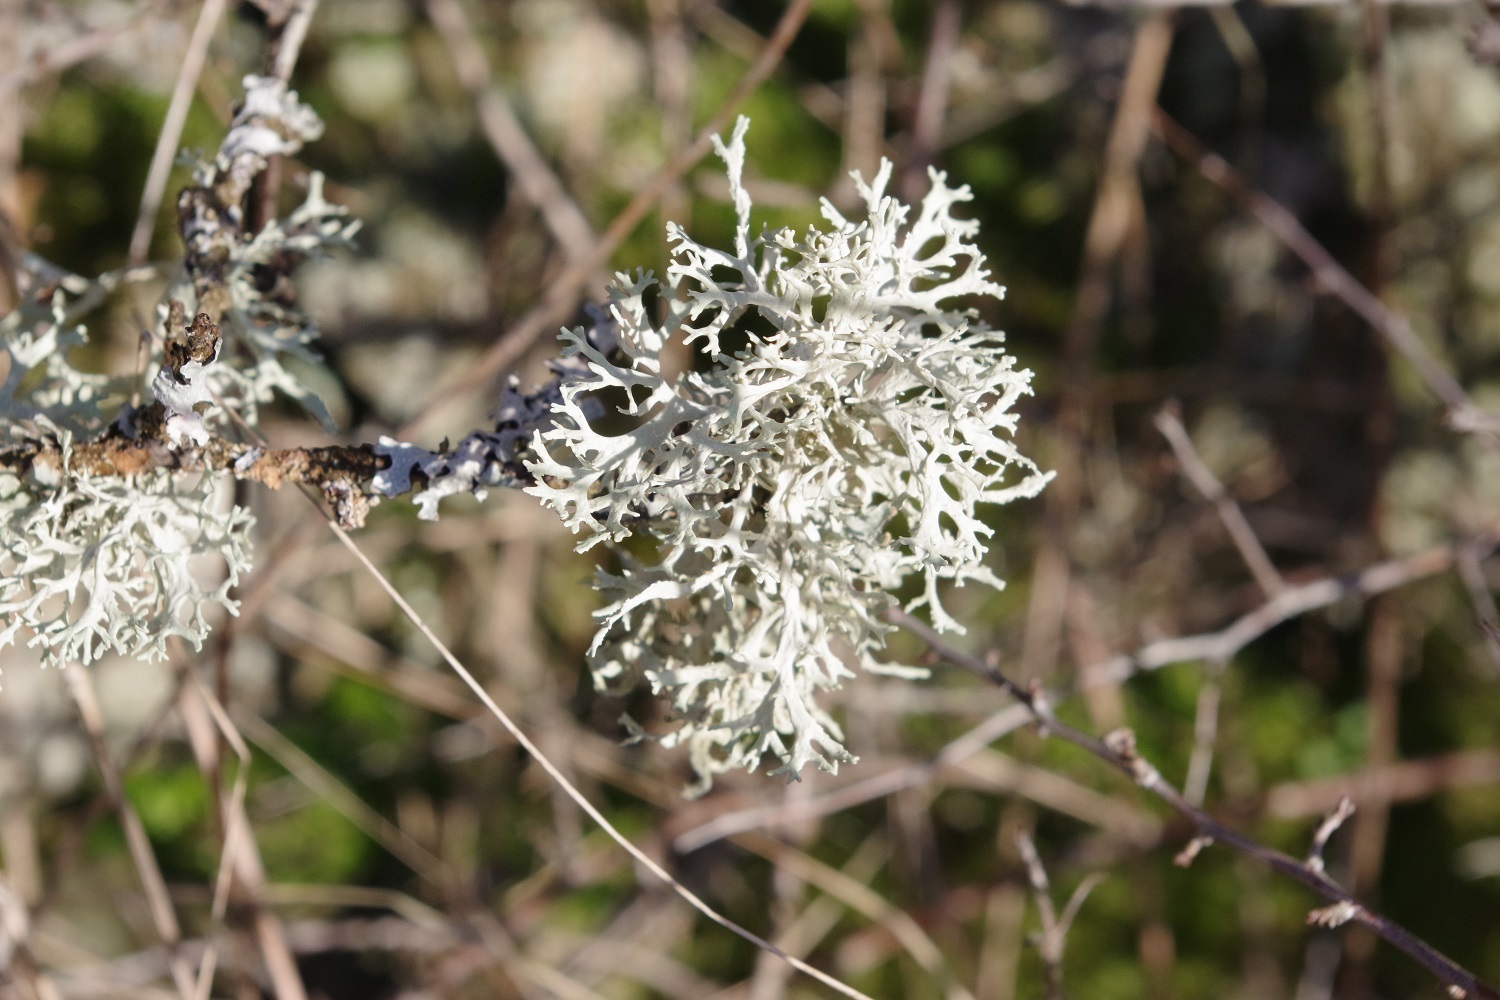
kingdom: Fungi
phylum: Ascomycota
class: Lecanoromycetes
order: Lecanorales
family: Parmeliaceae
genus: Evernia
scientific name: Evernia prunastri
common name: Oak moss
